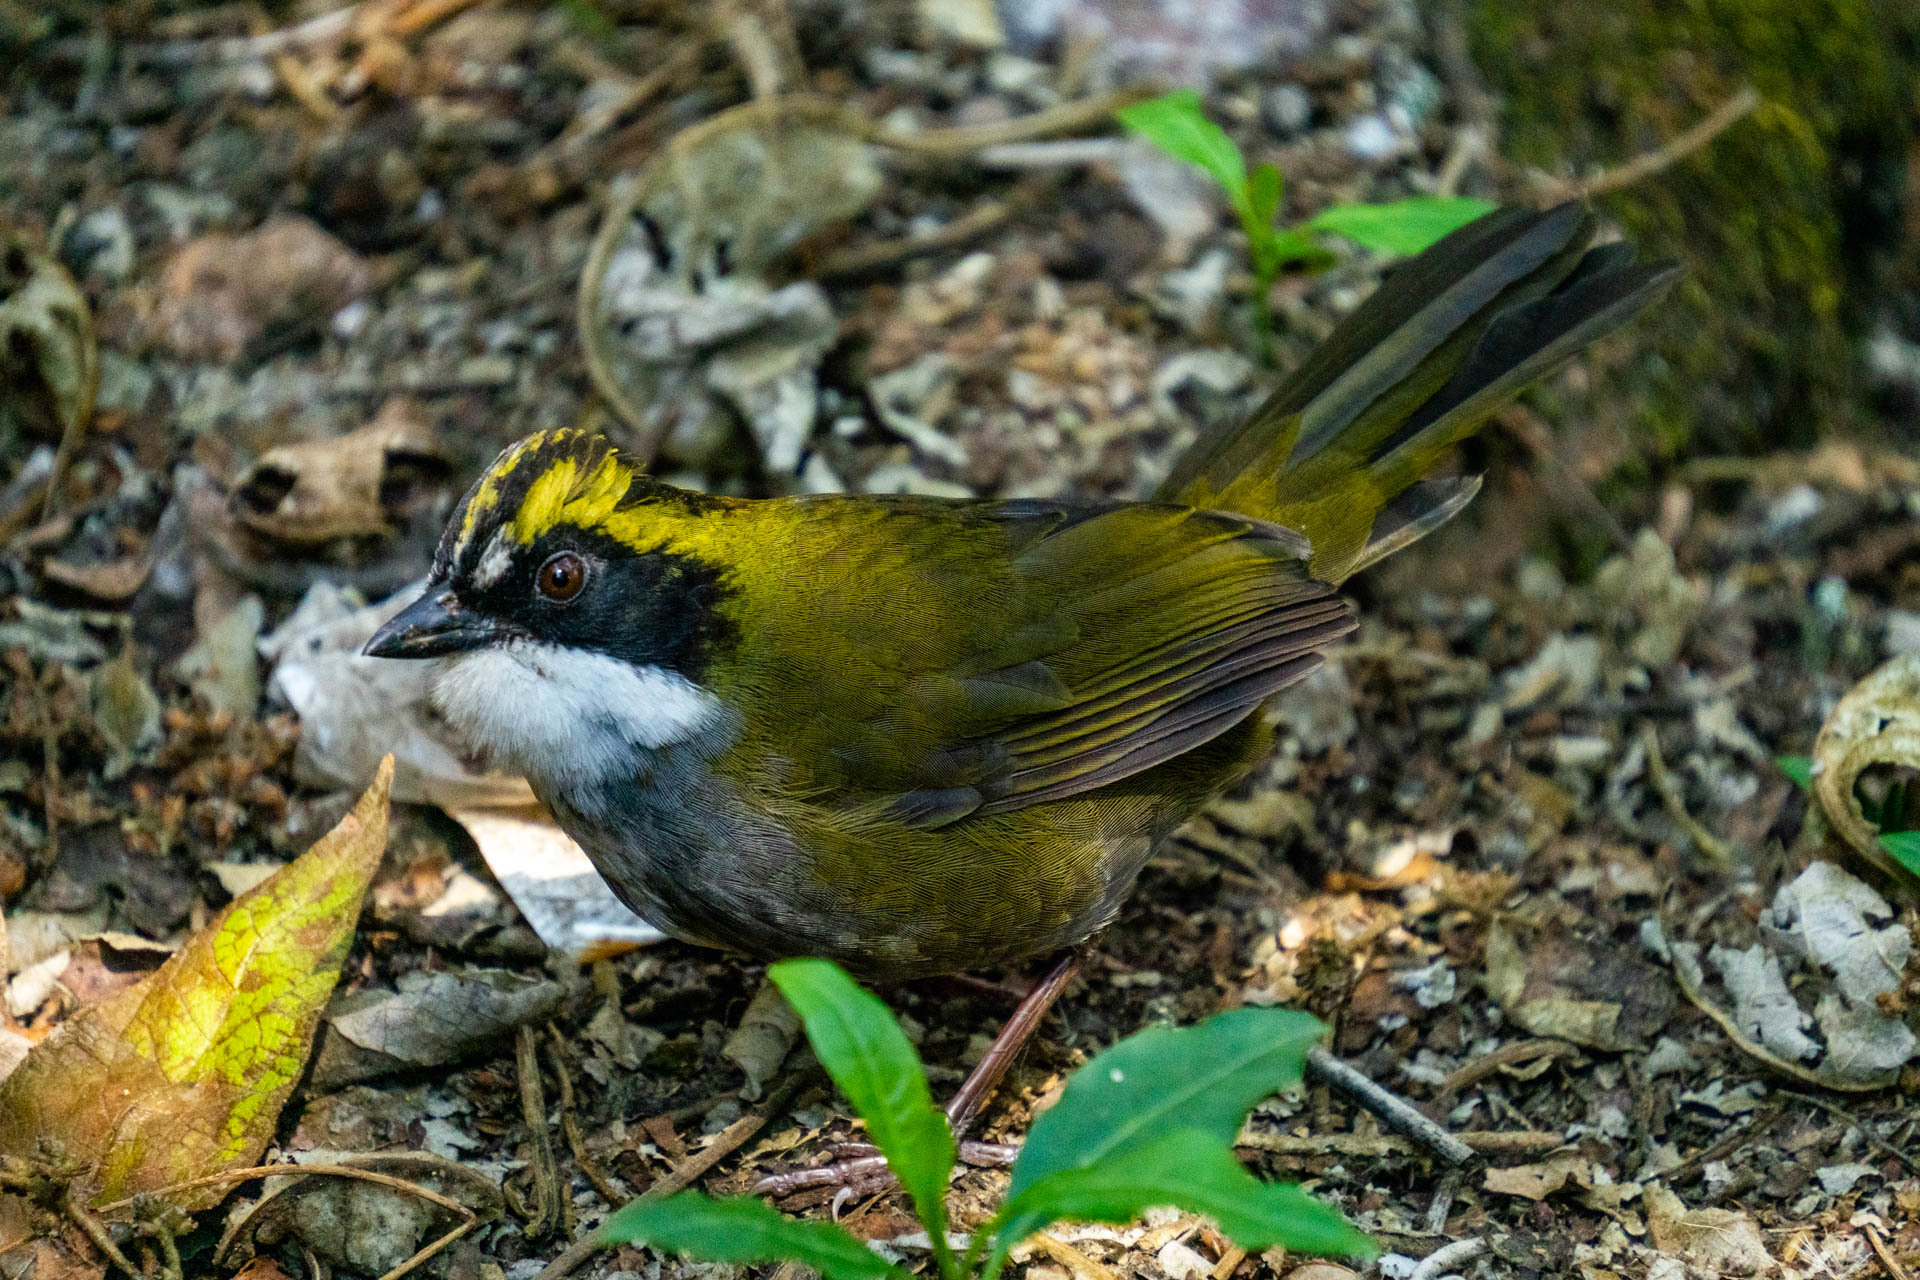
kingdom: Animalia
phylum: Chordata
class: Aves
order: Passeriformes
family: Passerellidae
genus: Arremon
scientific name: Arremon virenticeps
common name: Green-striped brushfinch
